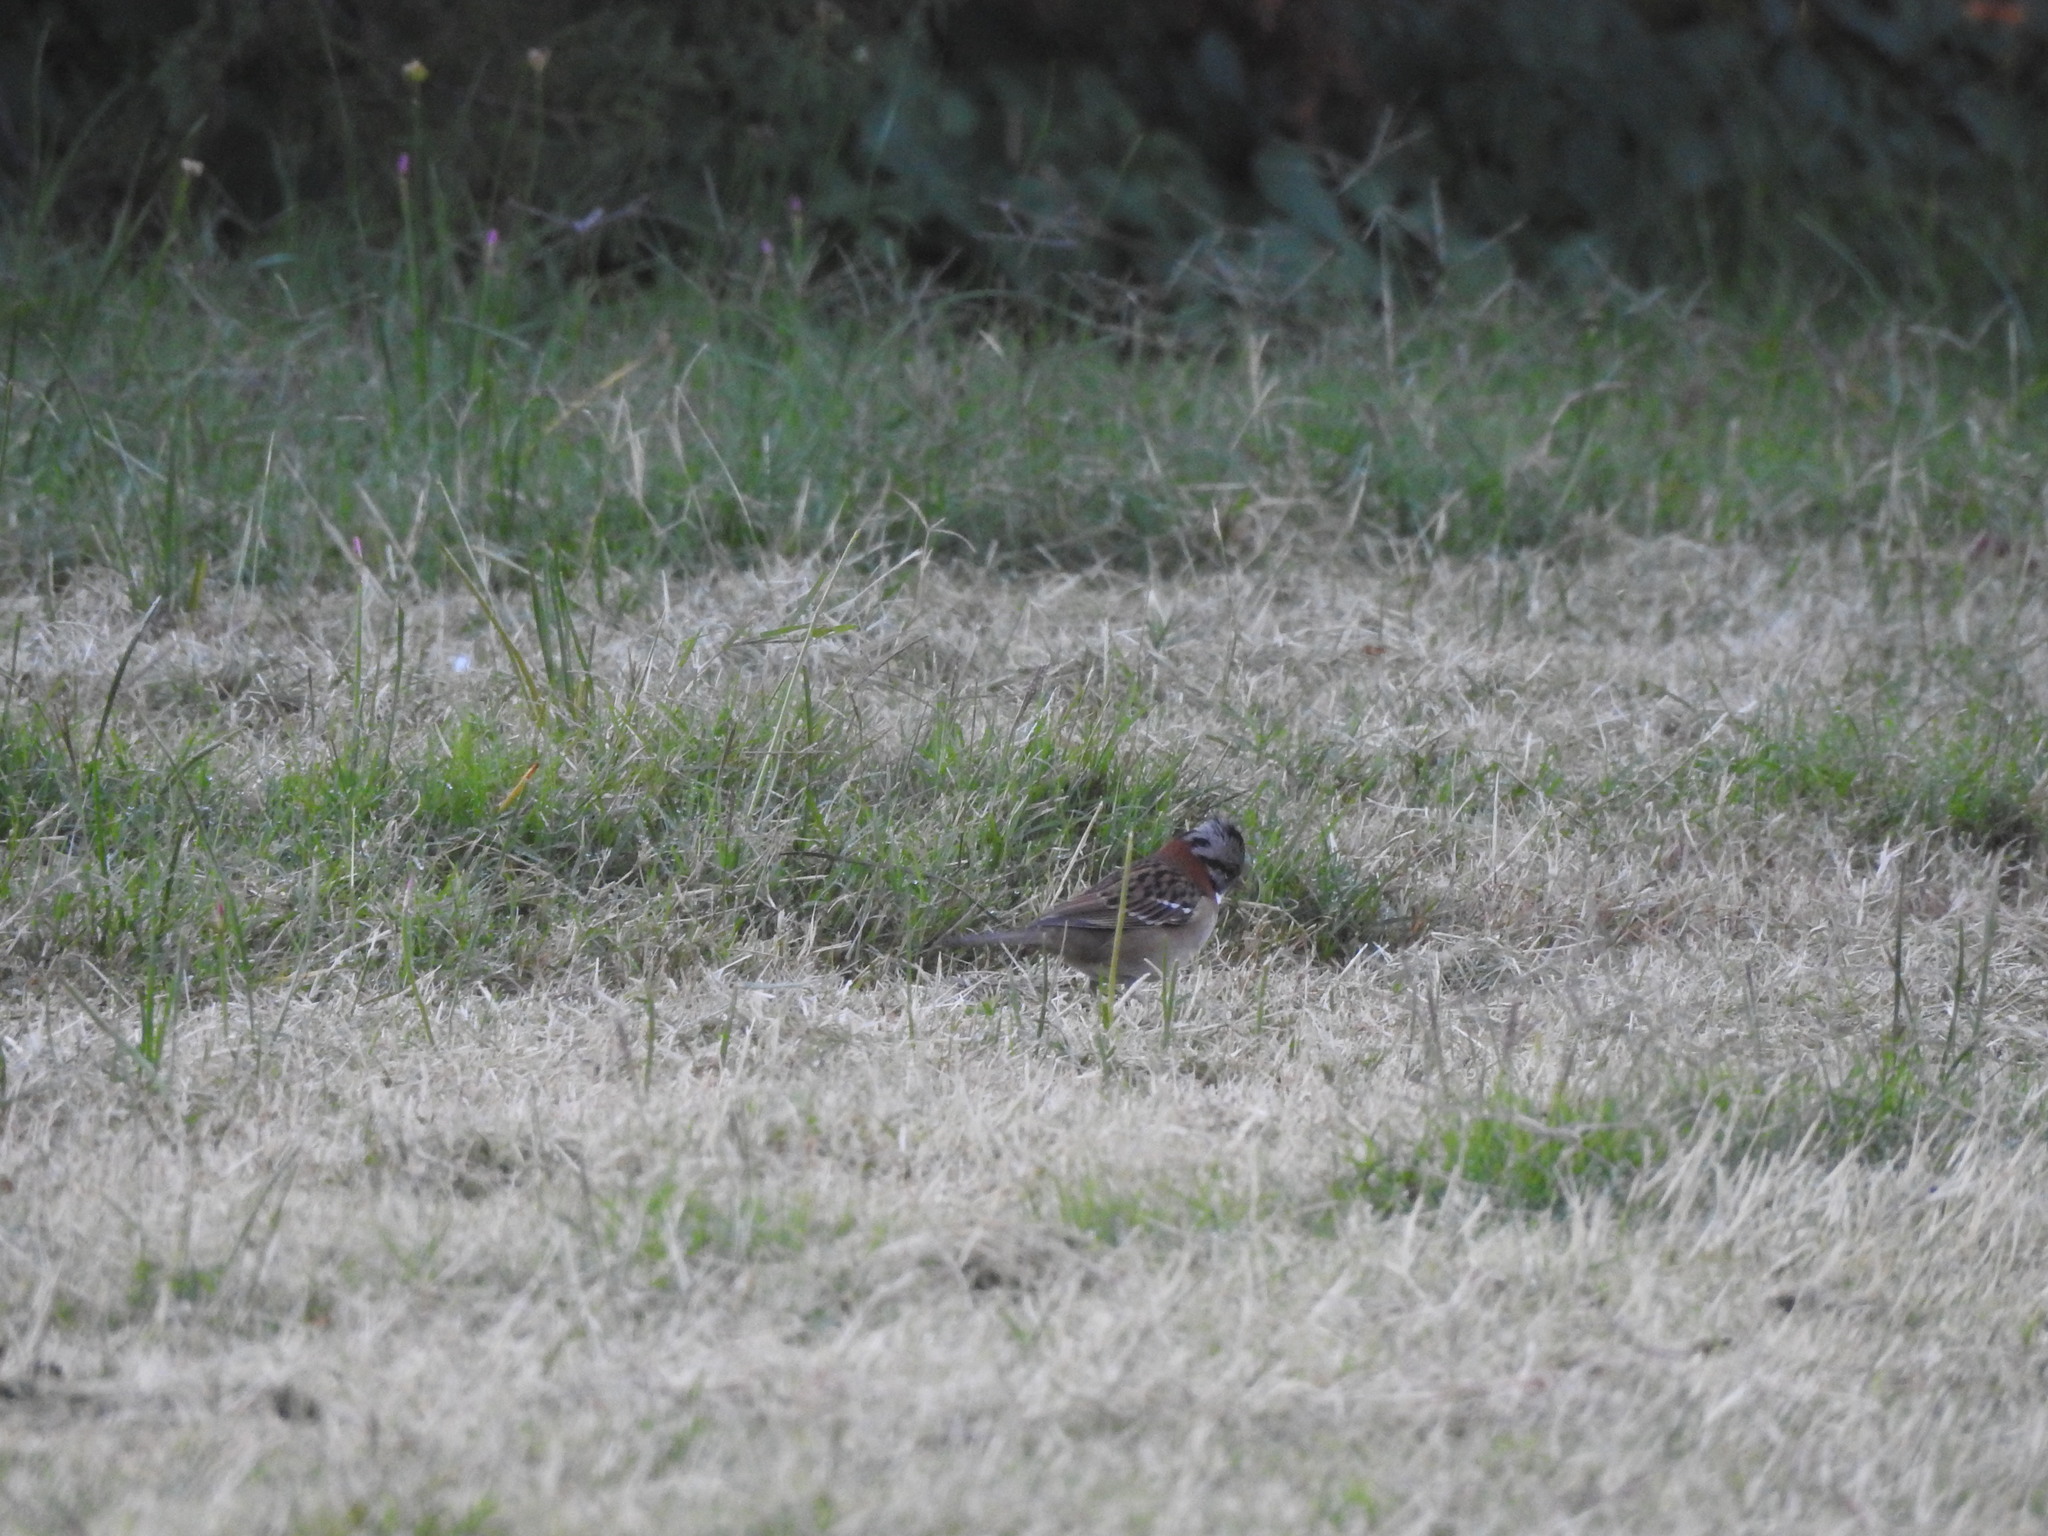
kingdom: Animalia
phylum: Chordata
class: Aves
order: Passeriformes
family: Passerellidae
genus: Zonotrichia
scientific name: Zonotrichia capensis
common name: Rufous-collared sparrow
